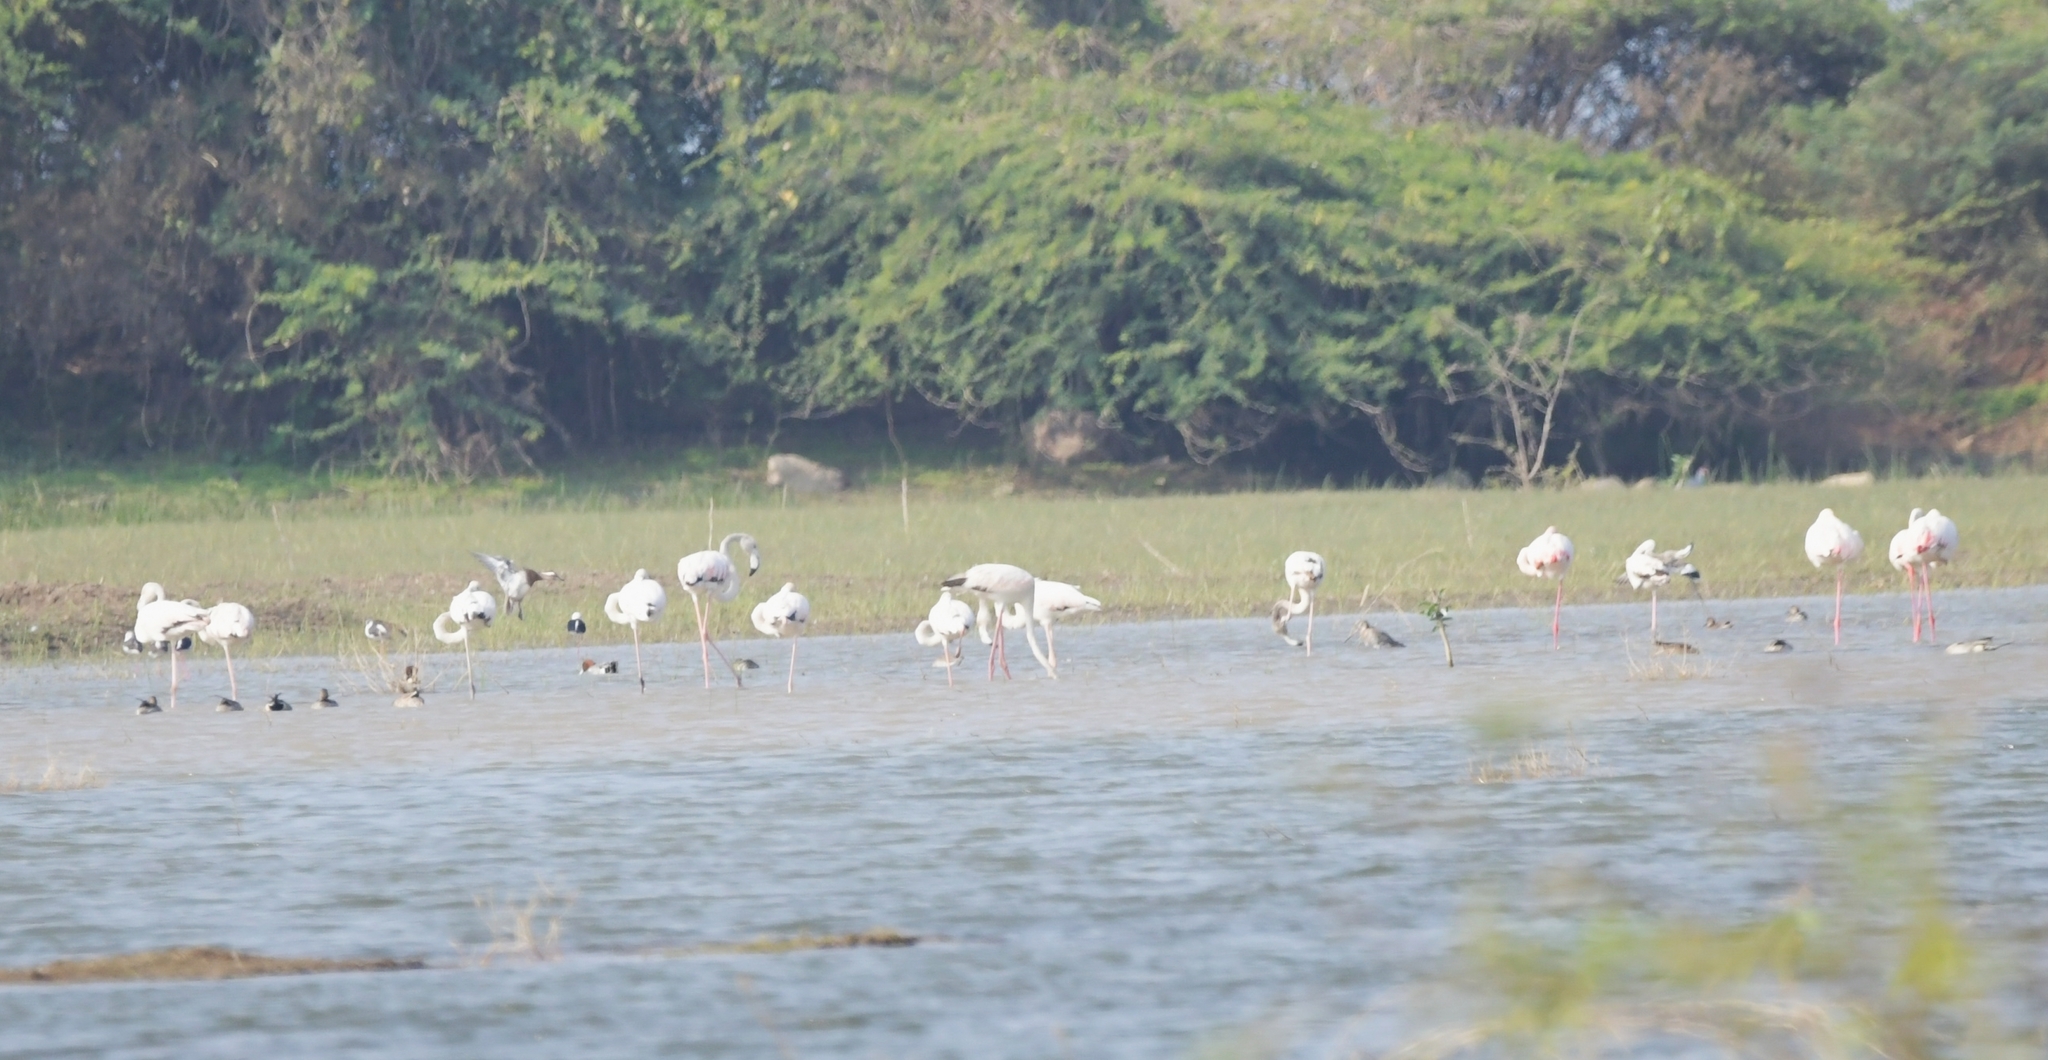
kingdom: Animalia
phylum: Chordata
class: Aves
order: Phoenicopteriformes
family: Phoenicopteridae
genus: Phoenicopterus
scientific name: Phoenicopterus roseus
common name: Greater flamingo
